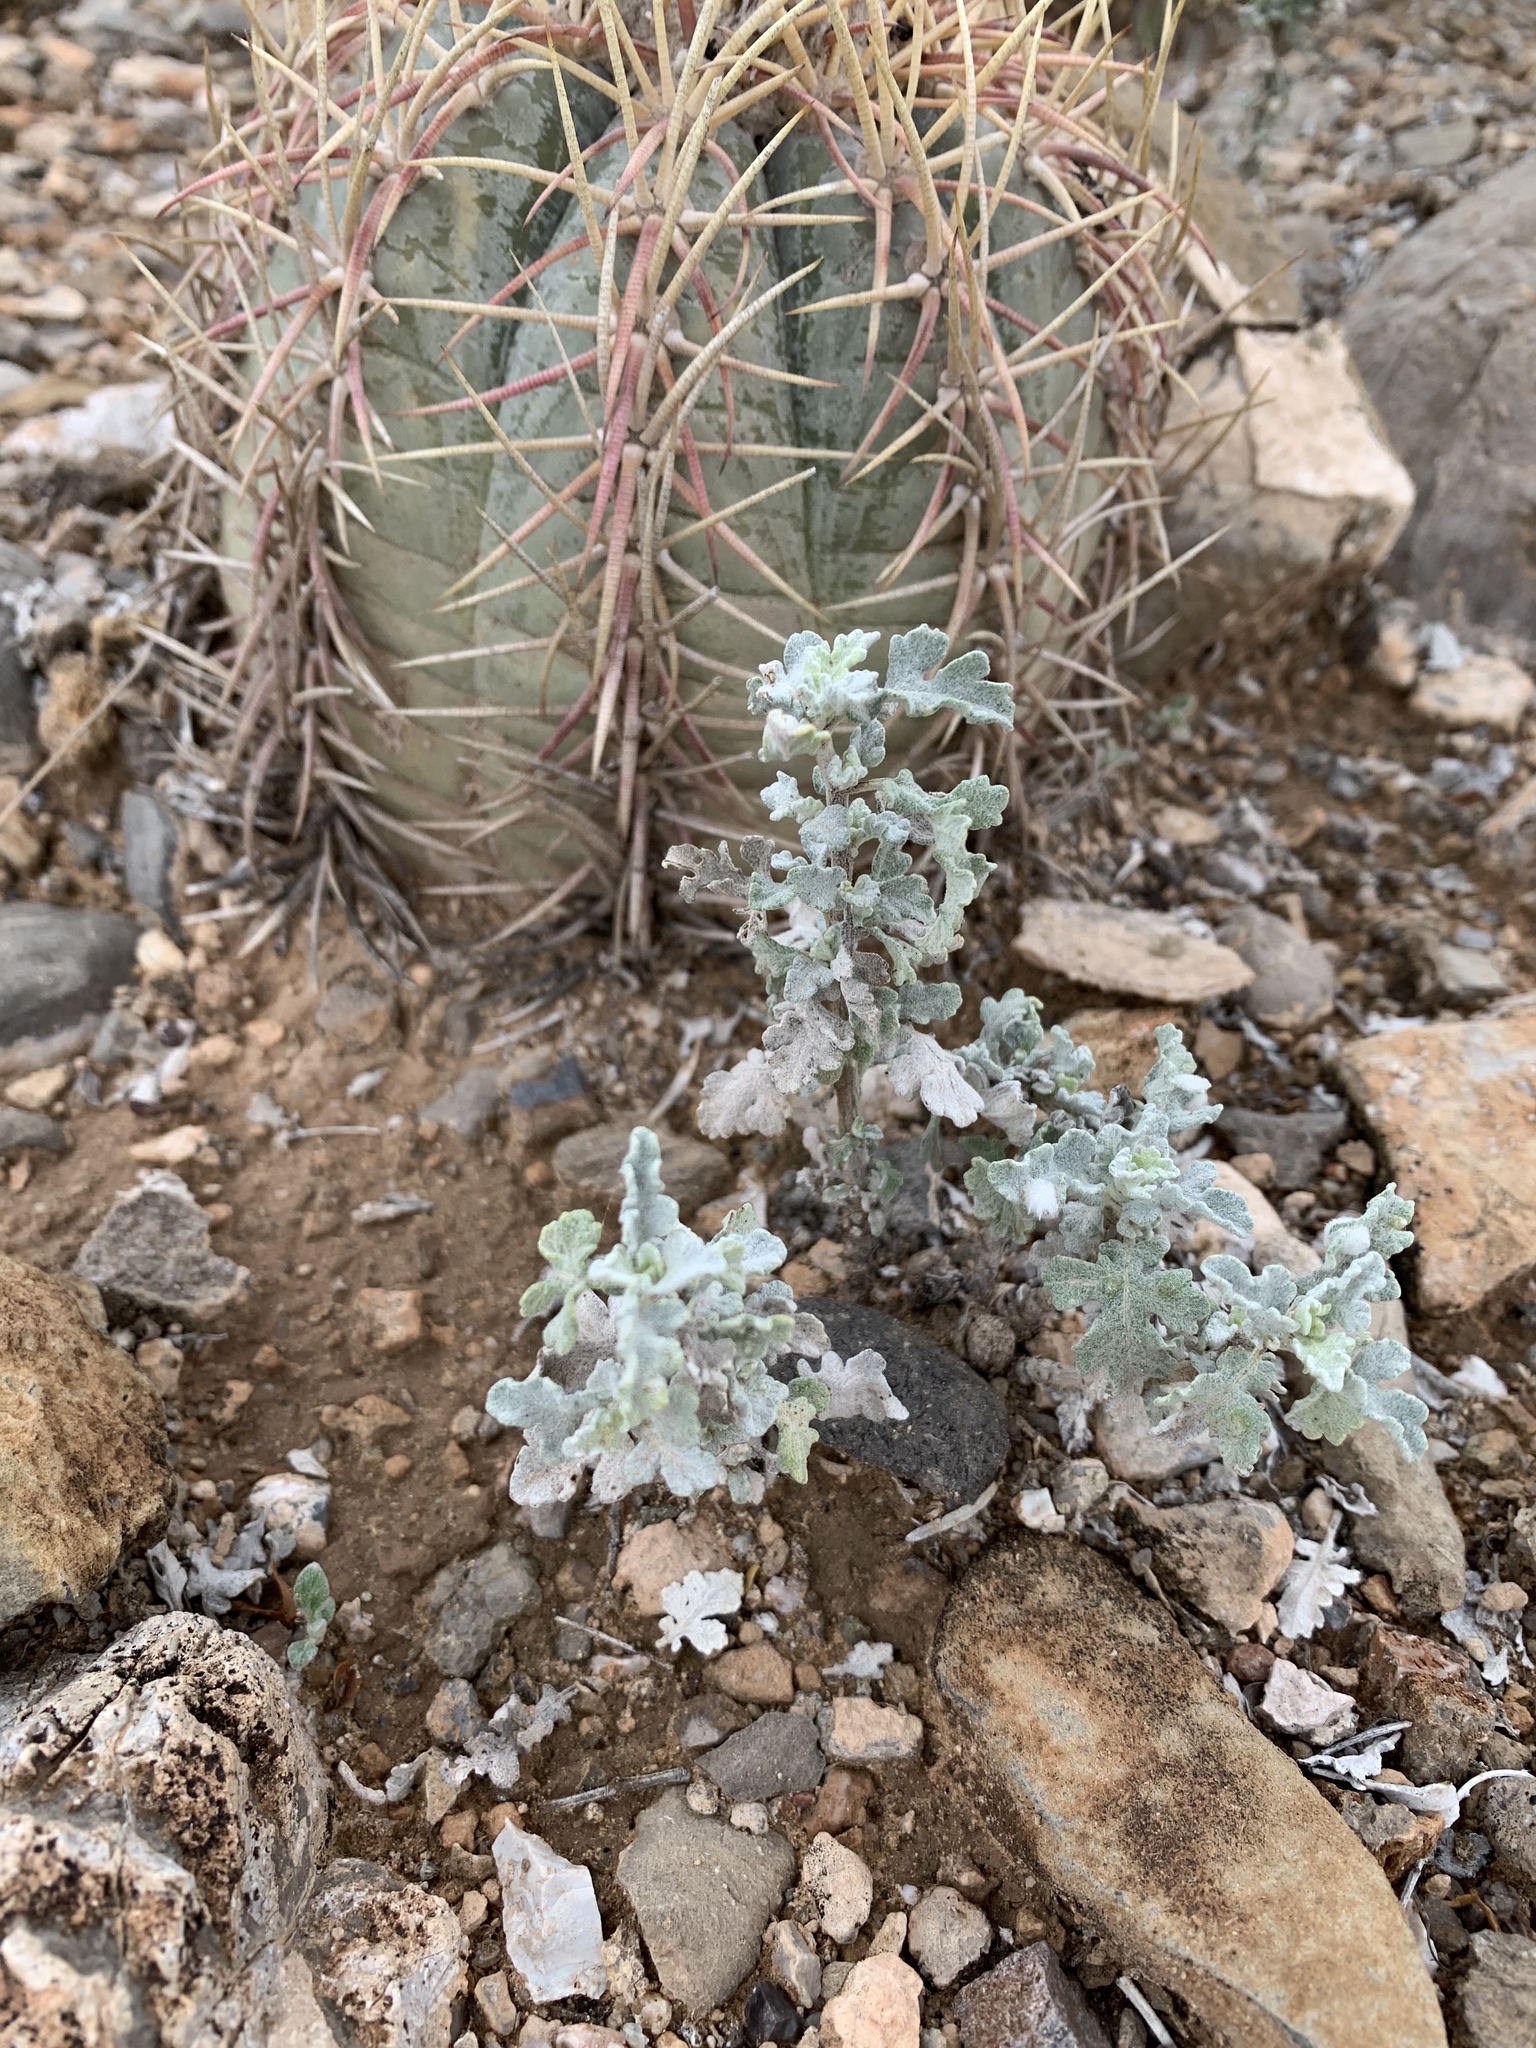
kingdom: Plantae
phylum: Tracheophyta
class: Magnoliopsida
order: Asterales
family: Asteraceae
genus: Parthenium
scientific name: Parthenium incanum
